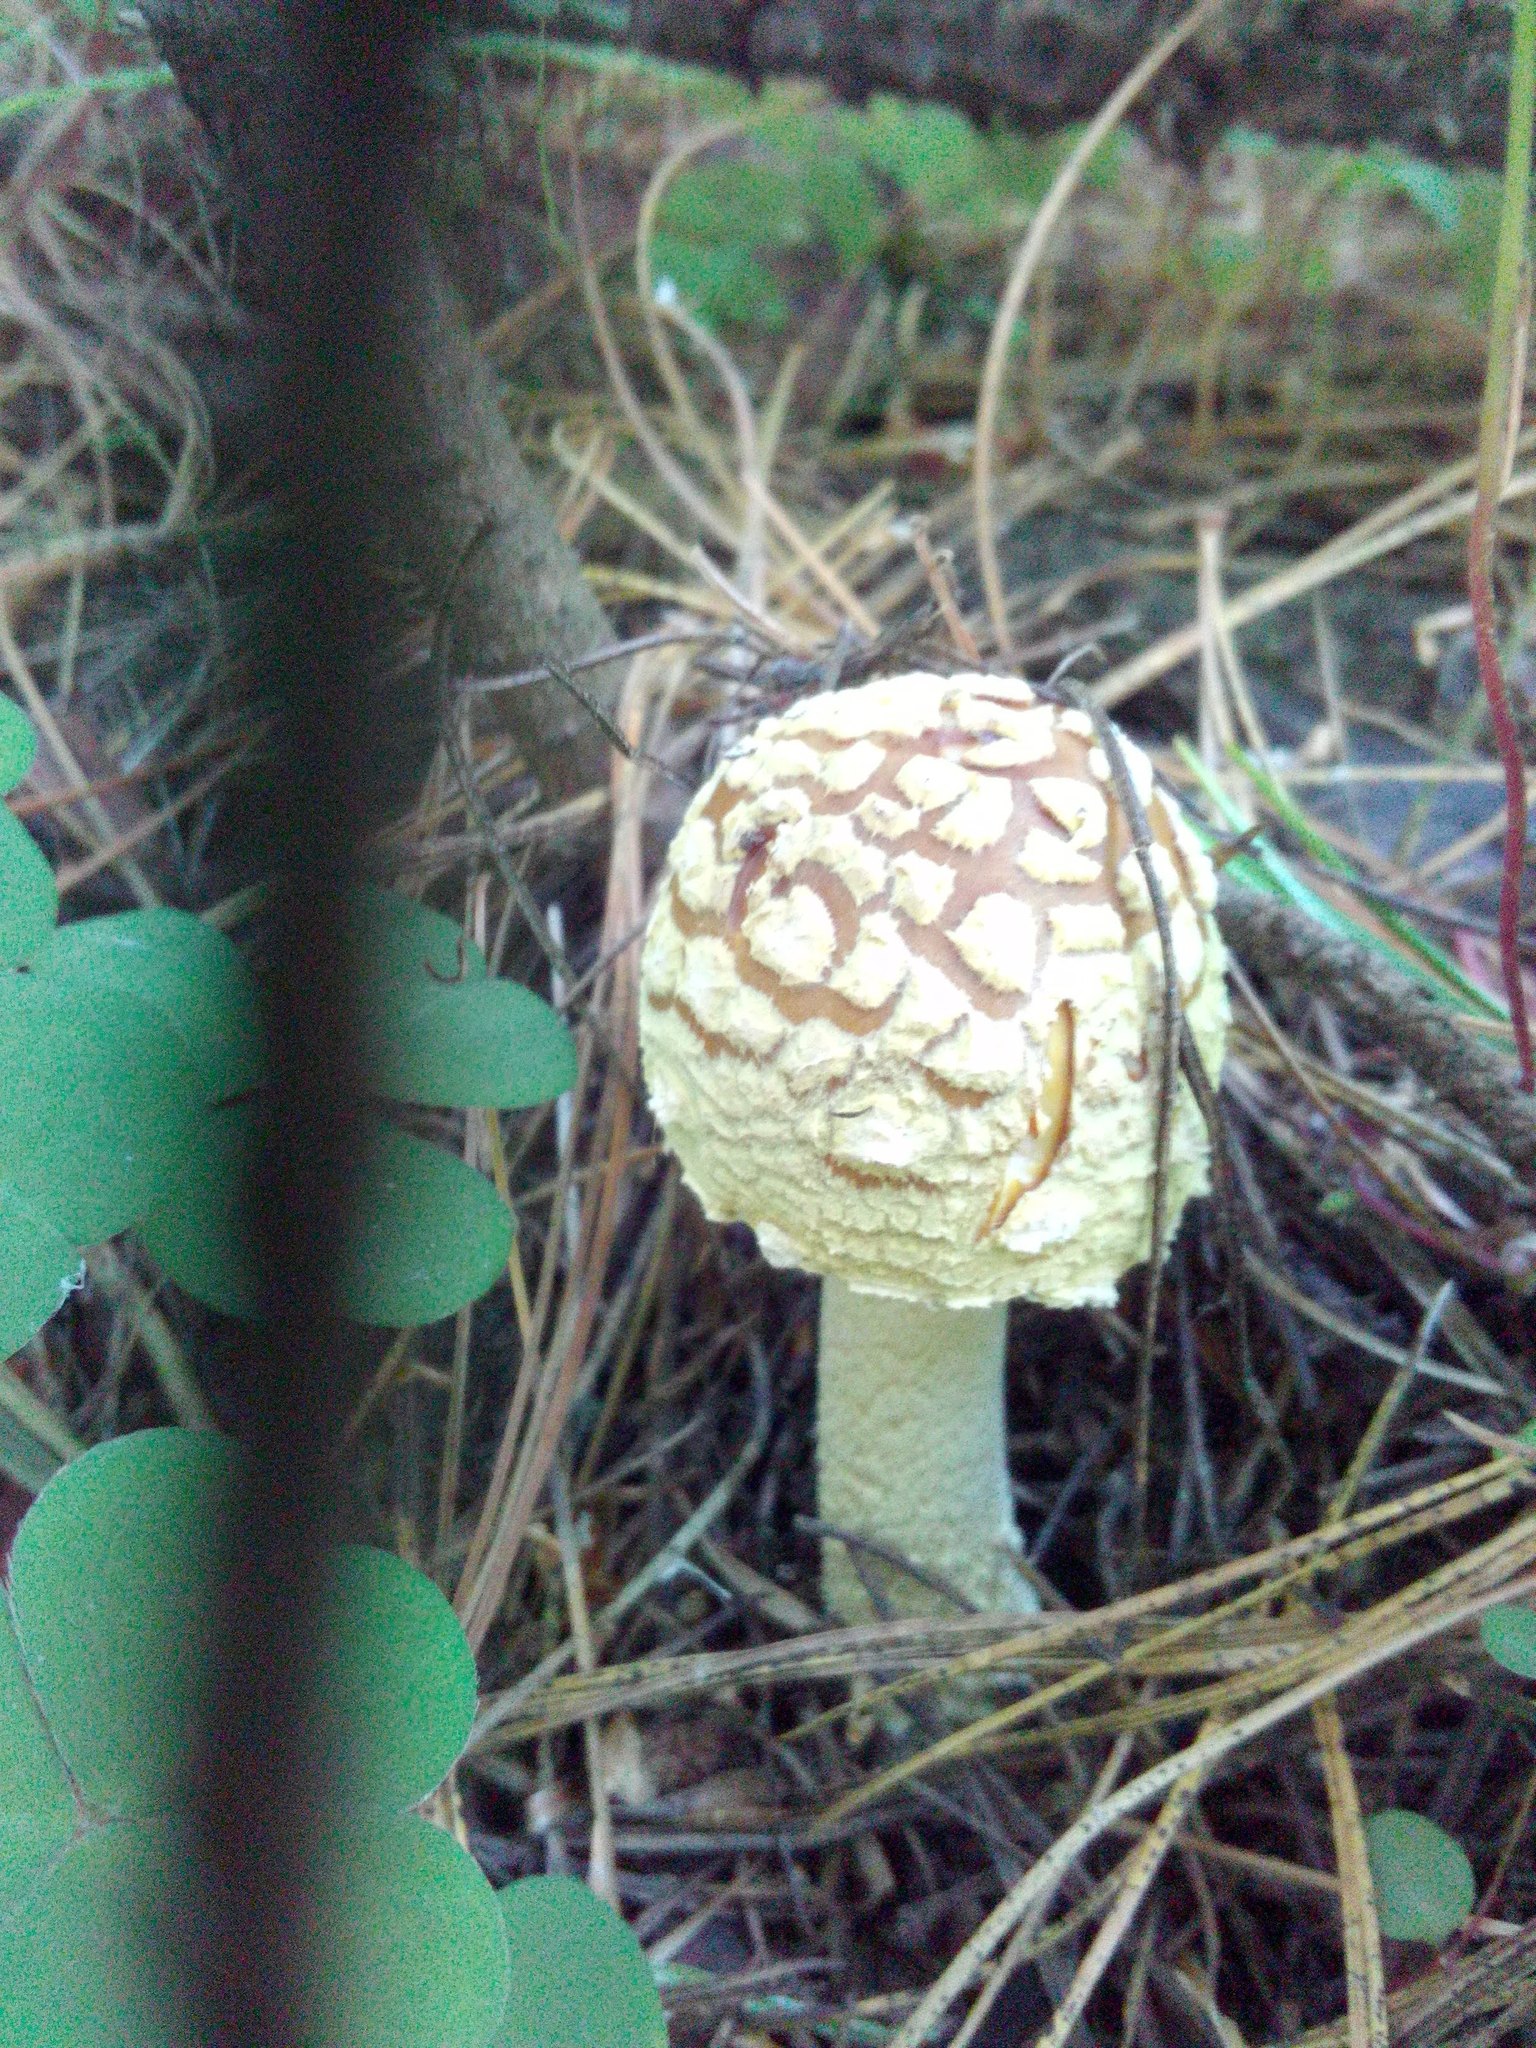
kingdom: Fungi
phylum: Basidiomycota
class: Agaricomycetes
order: Agaricales
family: Amanitaceae
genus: Amanita
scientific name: Amanita regalis
